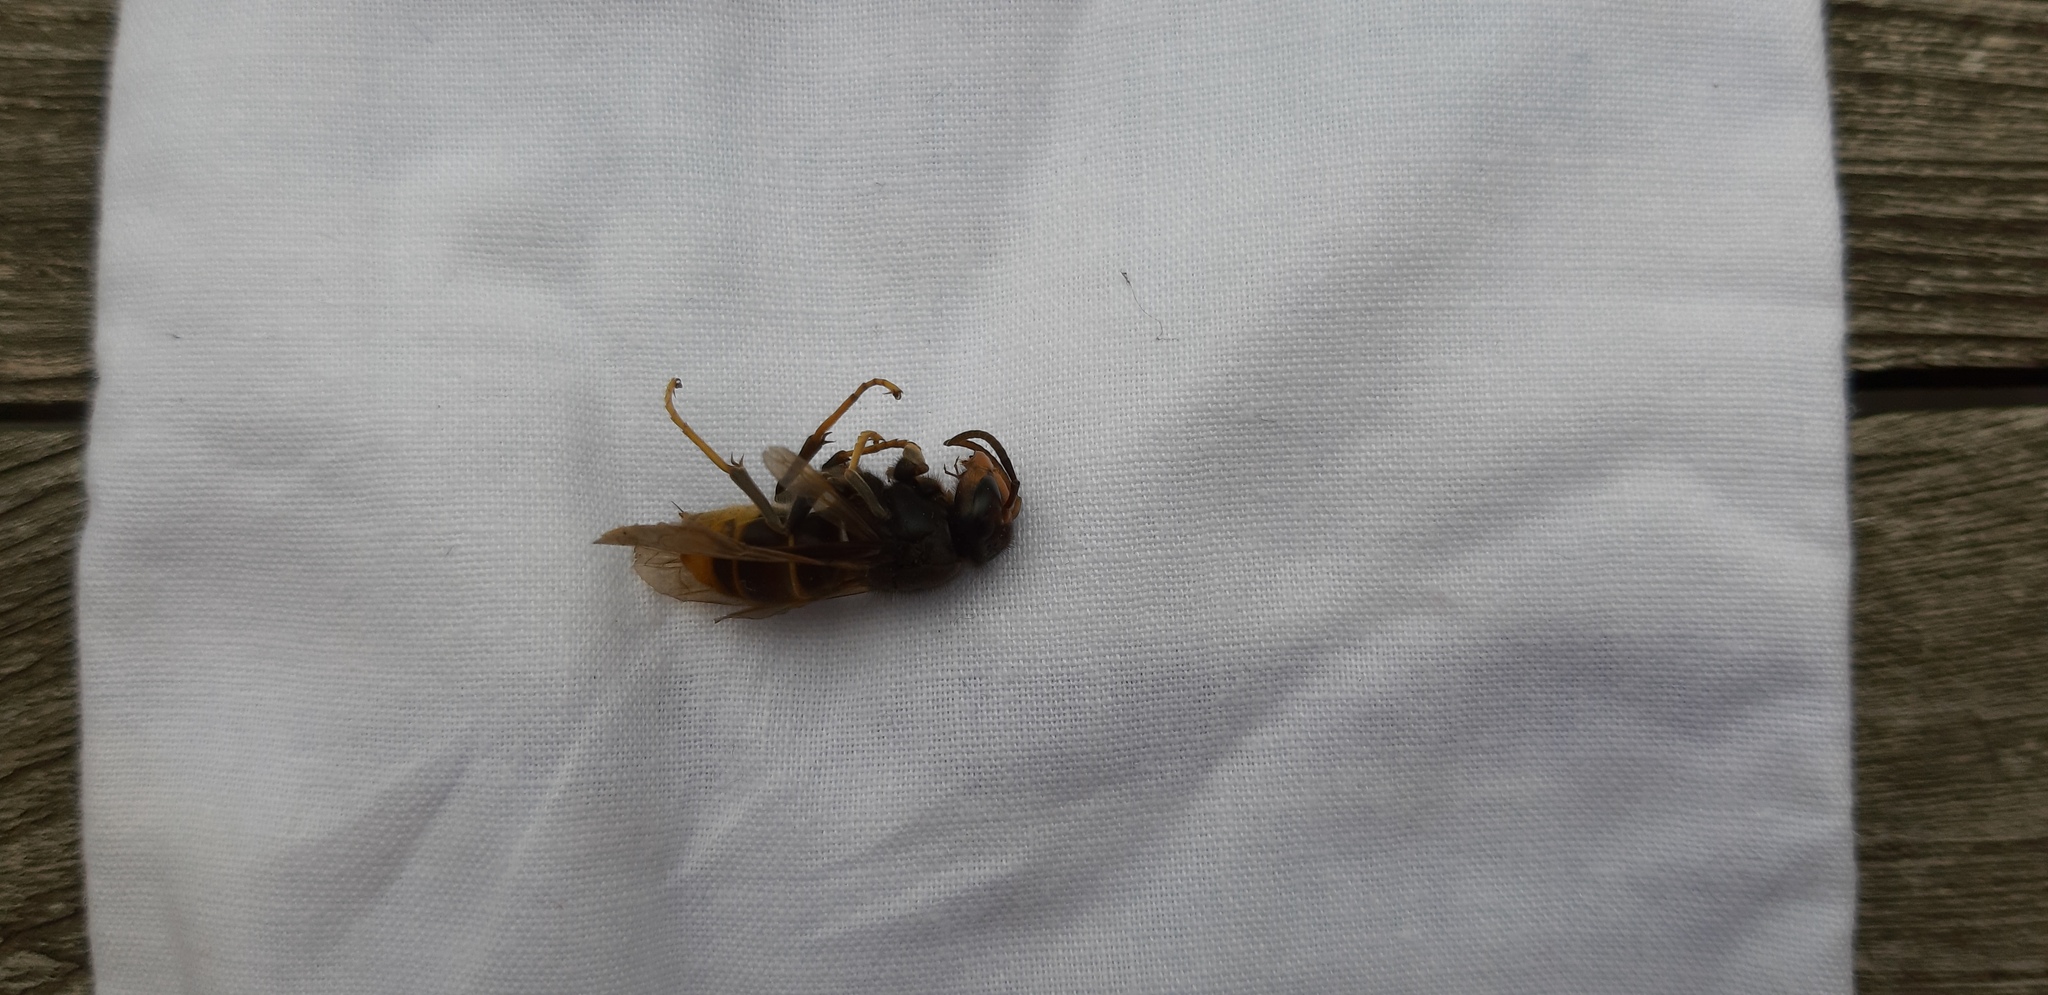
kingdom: Animalia
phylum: Arthropoda
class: Insecta
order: Hymenoptera
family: Vespidae
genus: Vespa
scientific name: Vespa velutina
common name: Asian hornet
